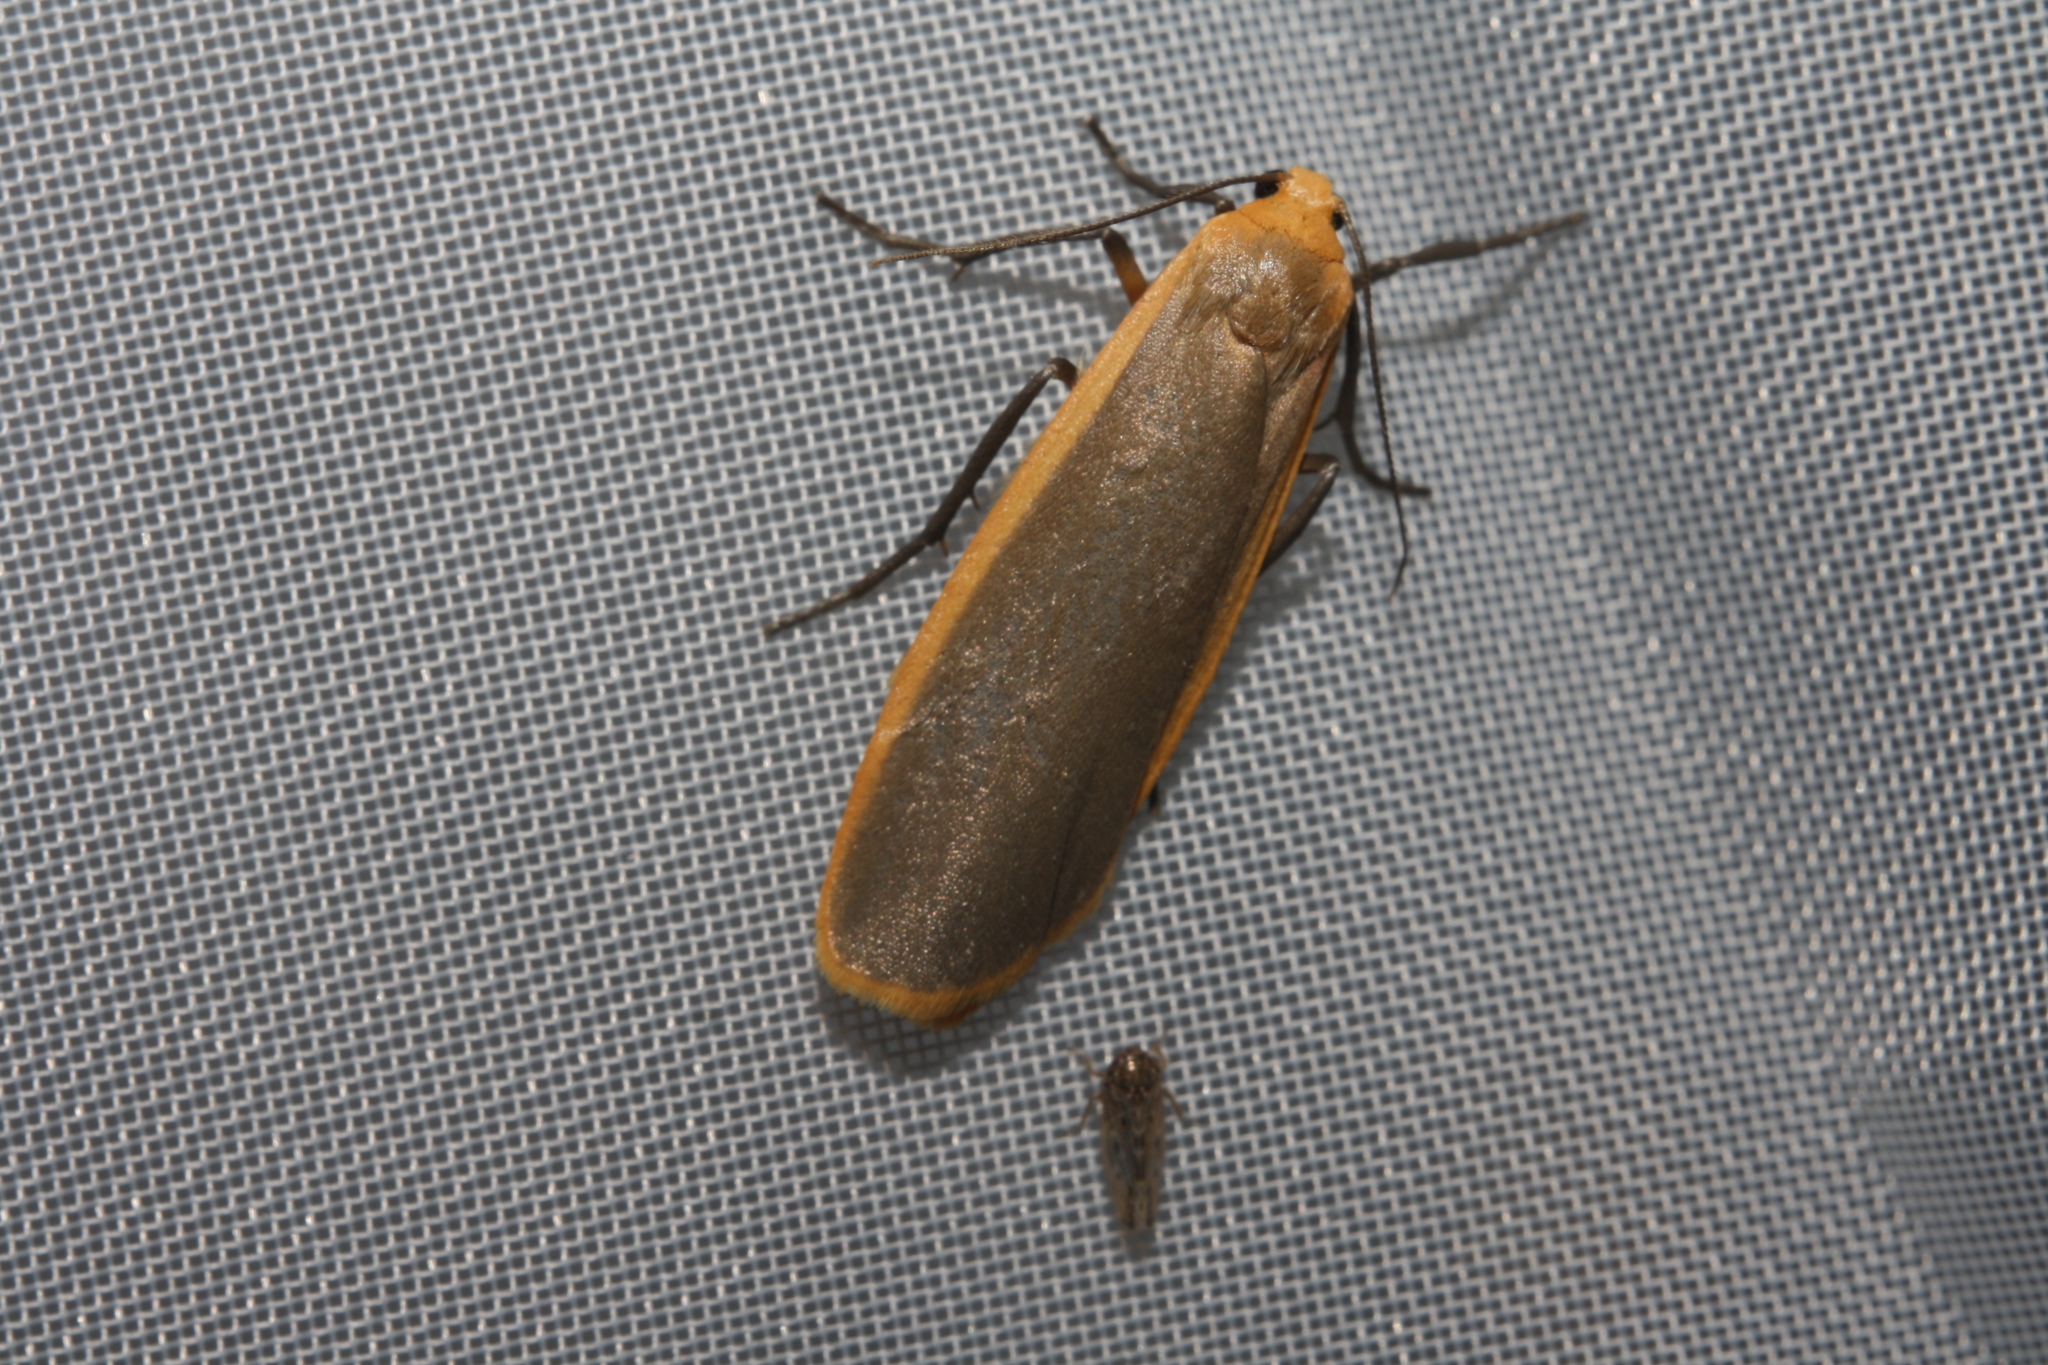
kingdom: Animalia
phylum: Arthropoda
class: Insecta
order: Lepidoptera
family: Erebidae
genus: Katha
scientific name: Katha depressa
